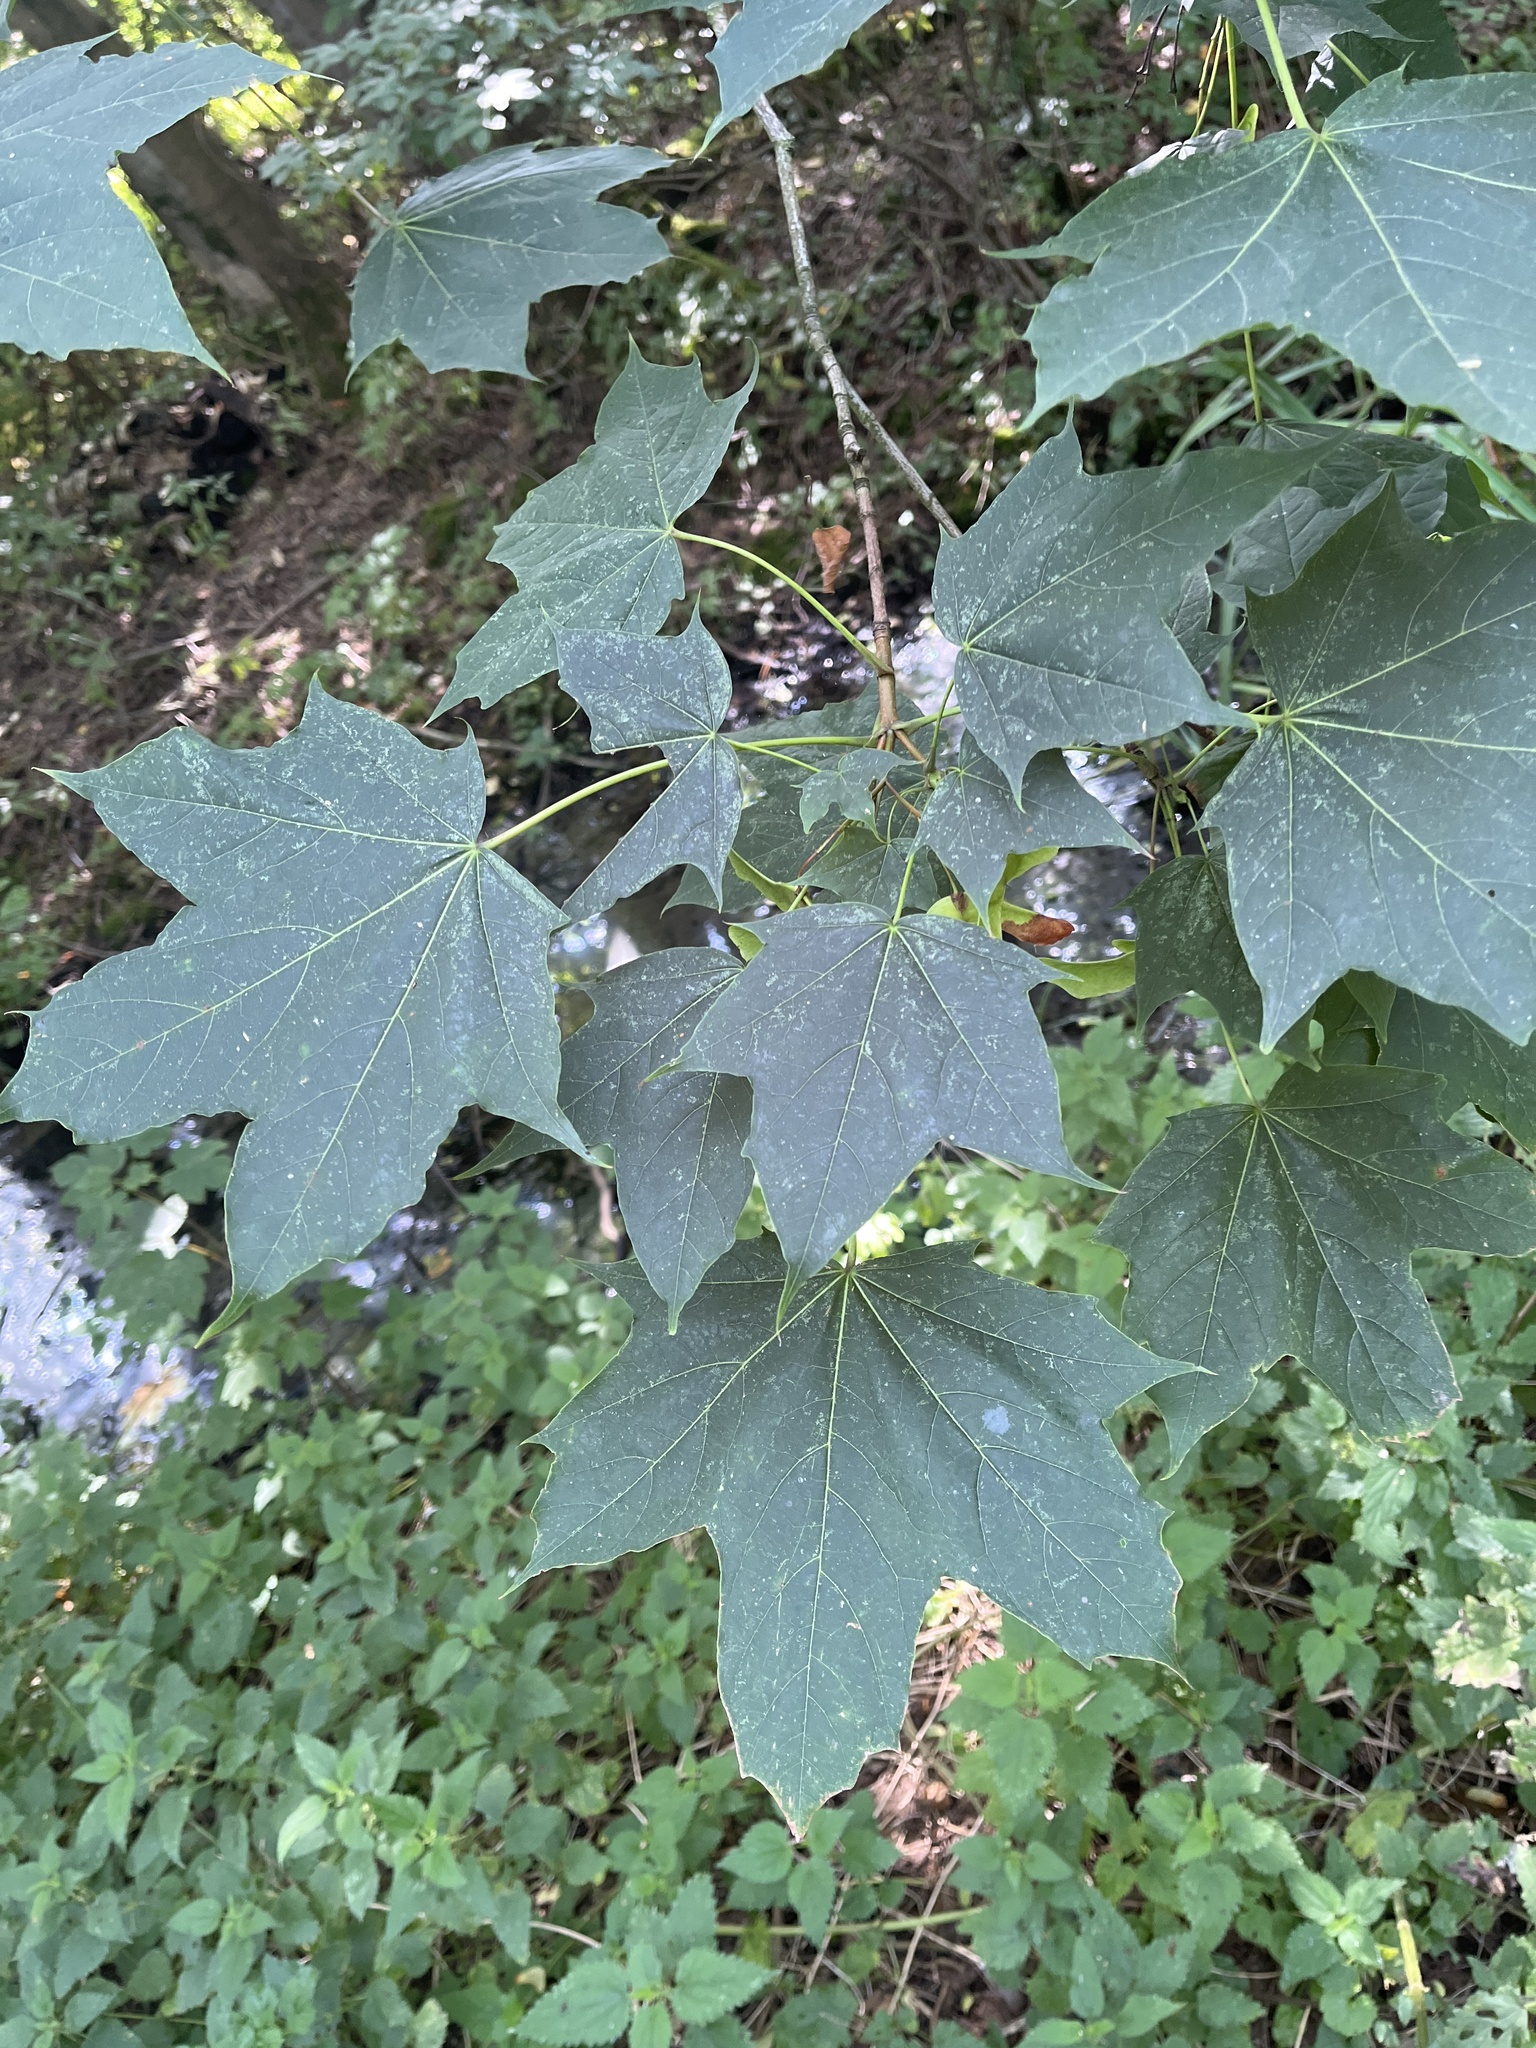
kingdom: Plantae
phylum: Tracheophyta
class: Magnoliopsida
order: Sapindales
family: Sapindaceae
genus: Acer
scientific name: Acer platanoides
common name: Norway maple
